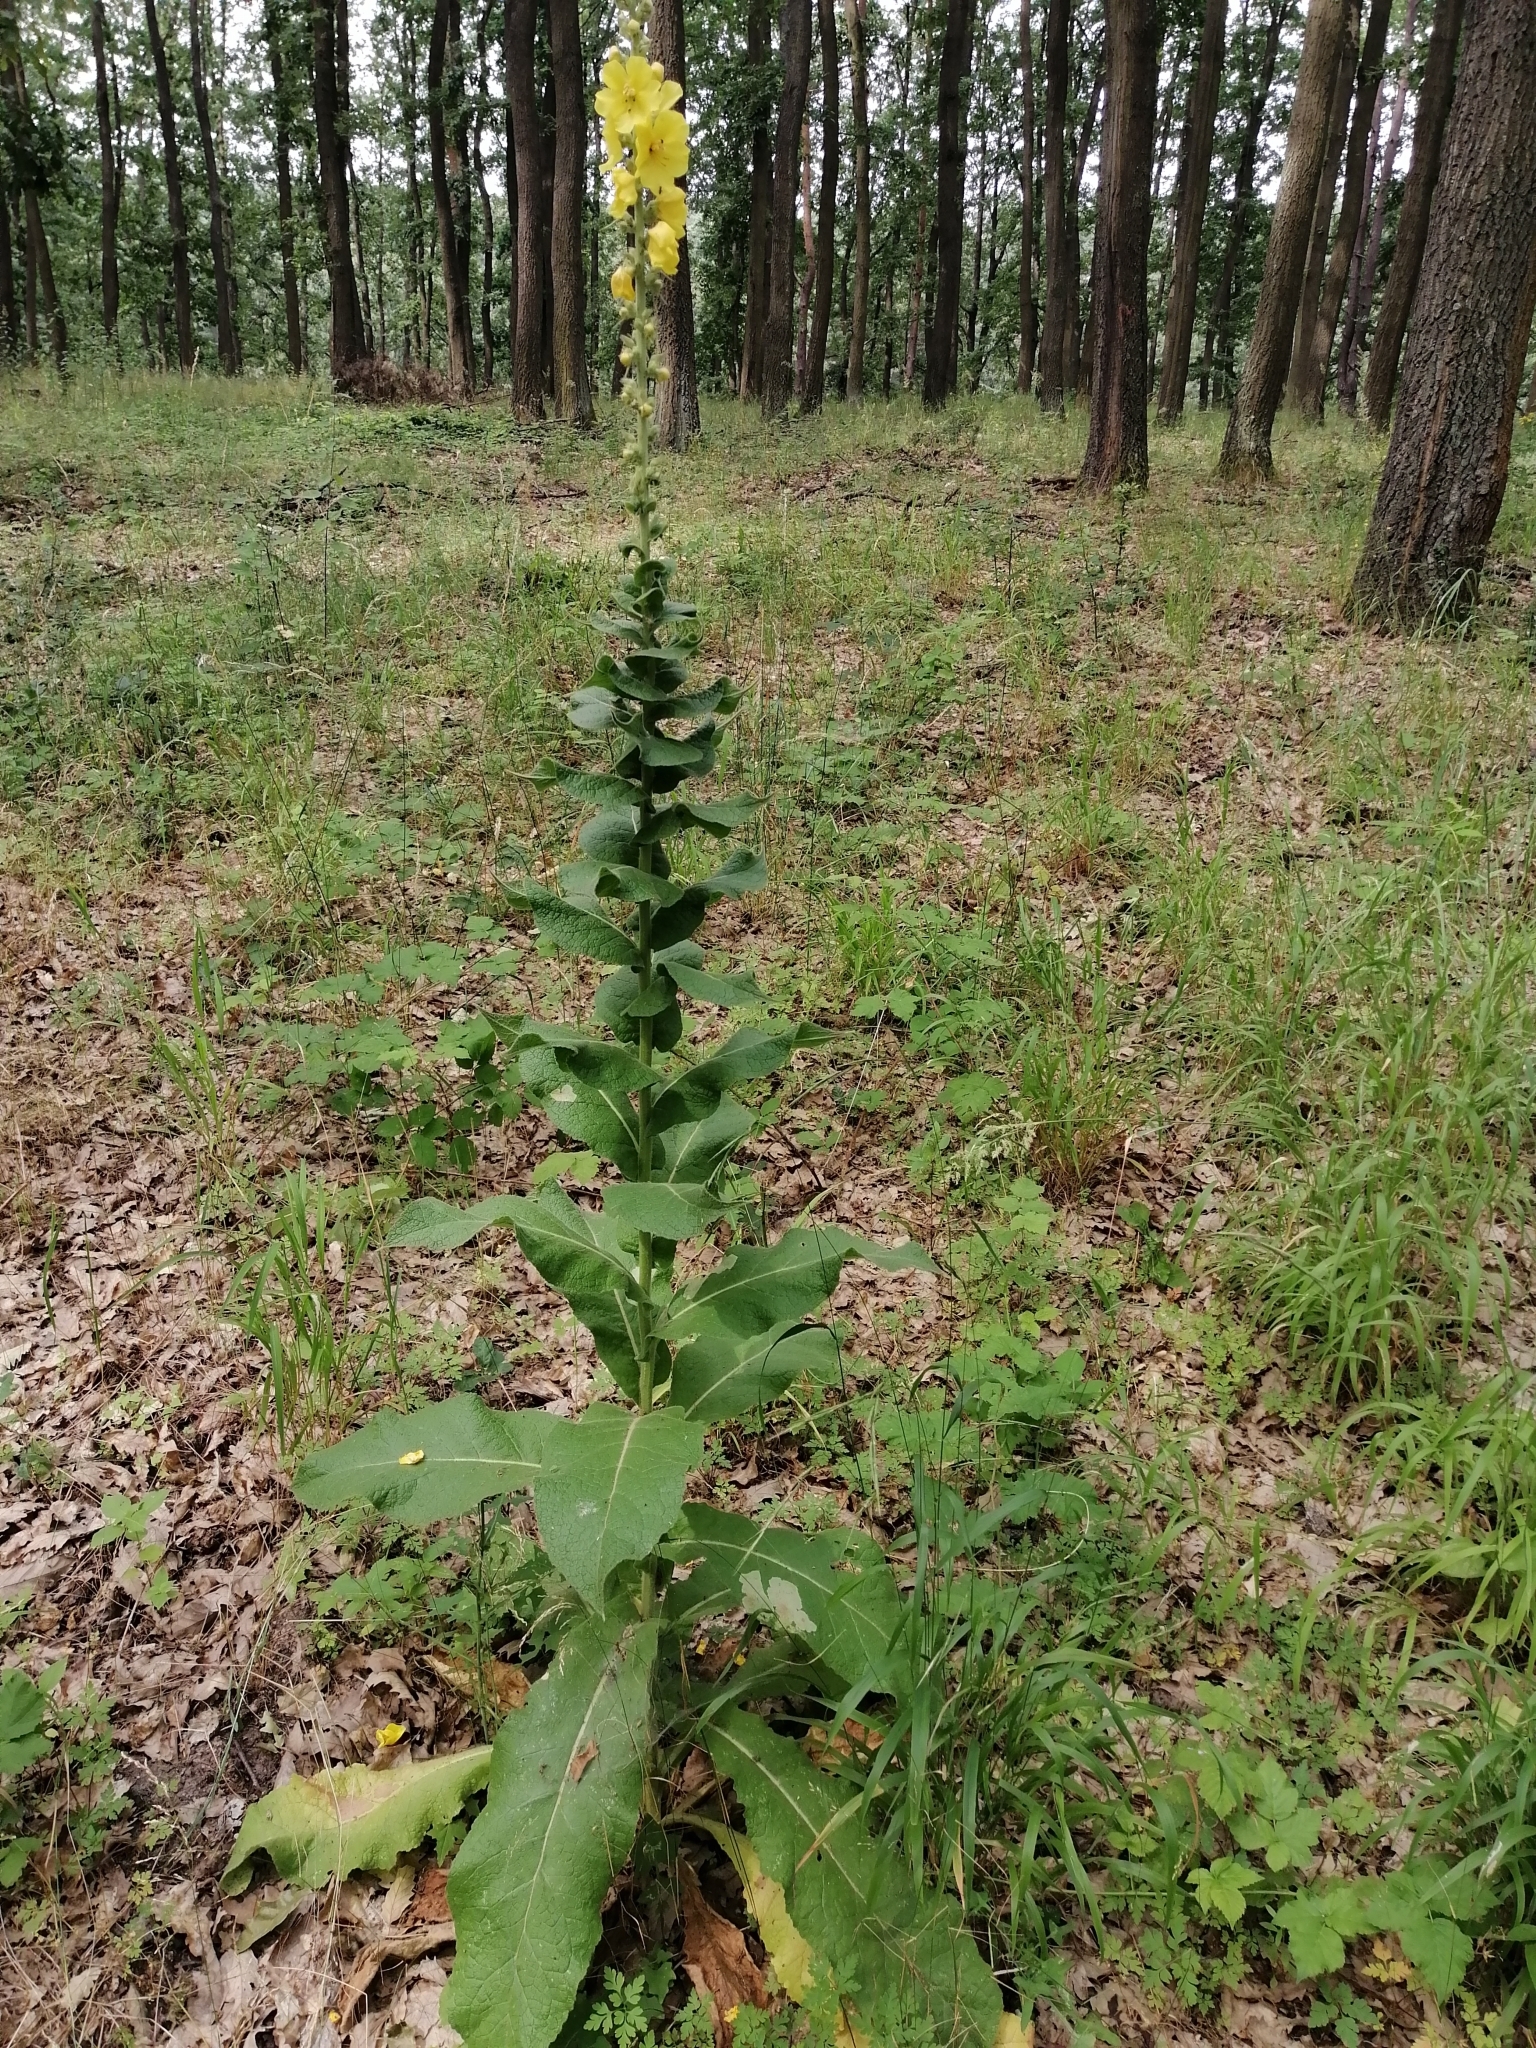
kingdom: Plantae
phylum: Tracheophyta
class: Magnoliopsida
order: Lamiales
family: Scrophulariaceae
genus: Verbascum
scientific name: Verbascum phlomoides
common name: Orange mullein
